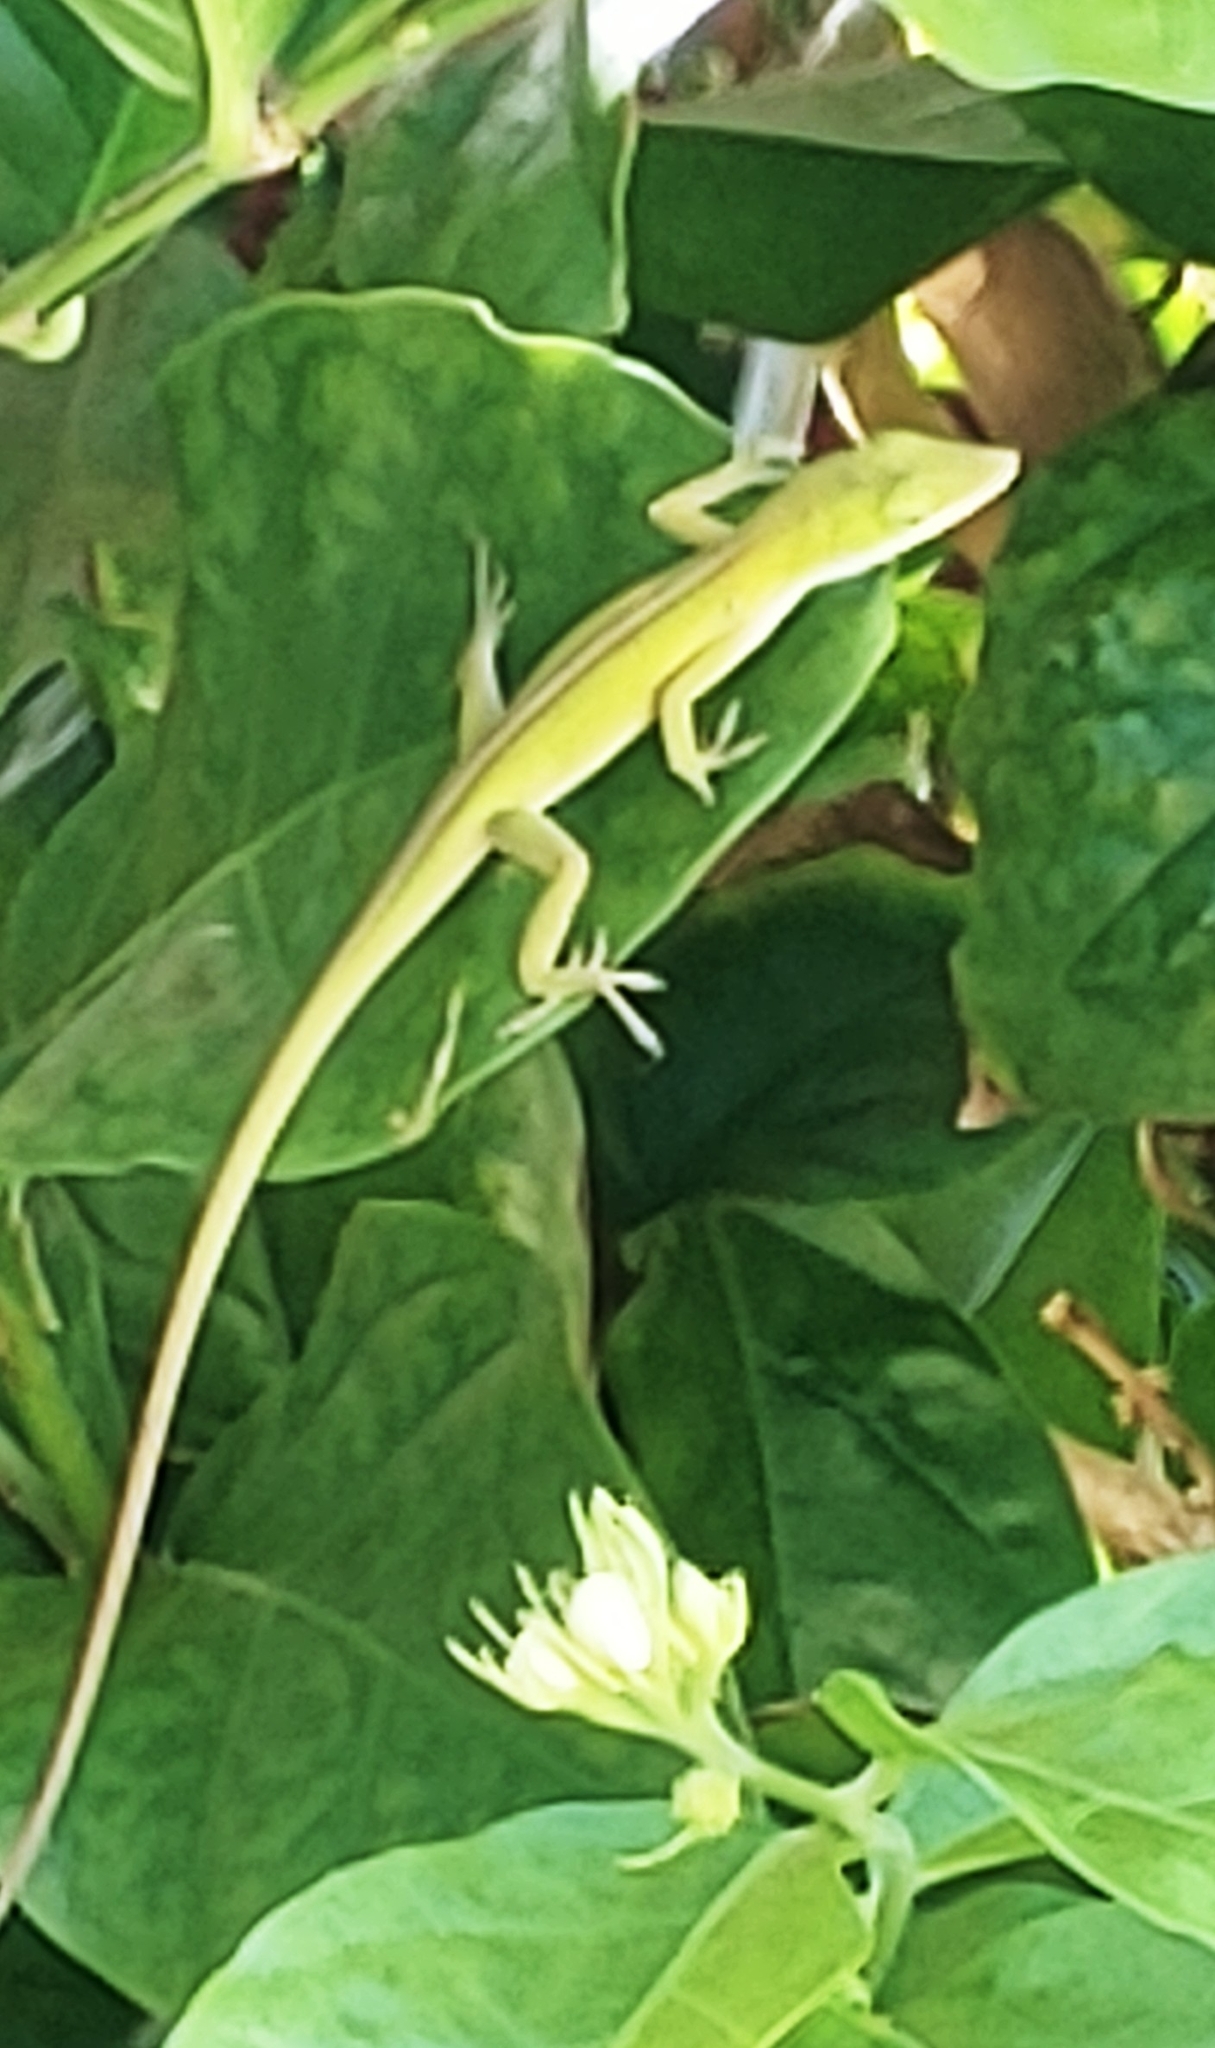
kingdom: Animalia
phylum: Chordata
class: Squamata
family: Dactyloidae
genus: Anolis
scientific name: Anolis carolinensis
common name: Green anole
